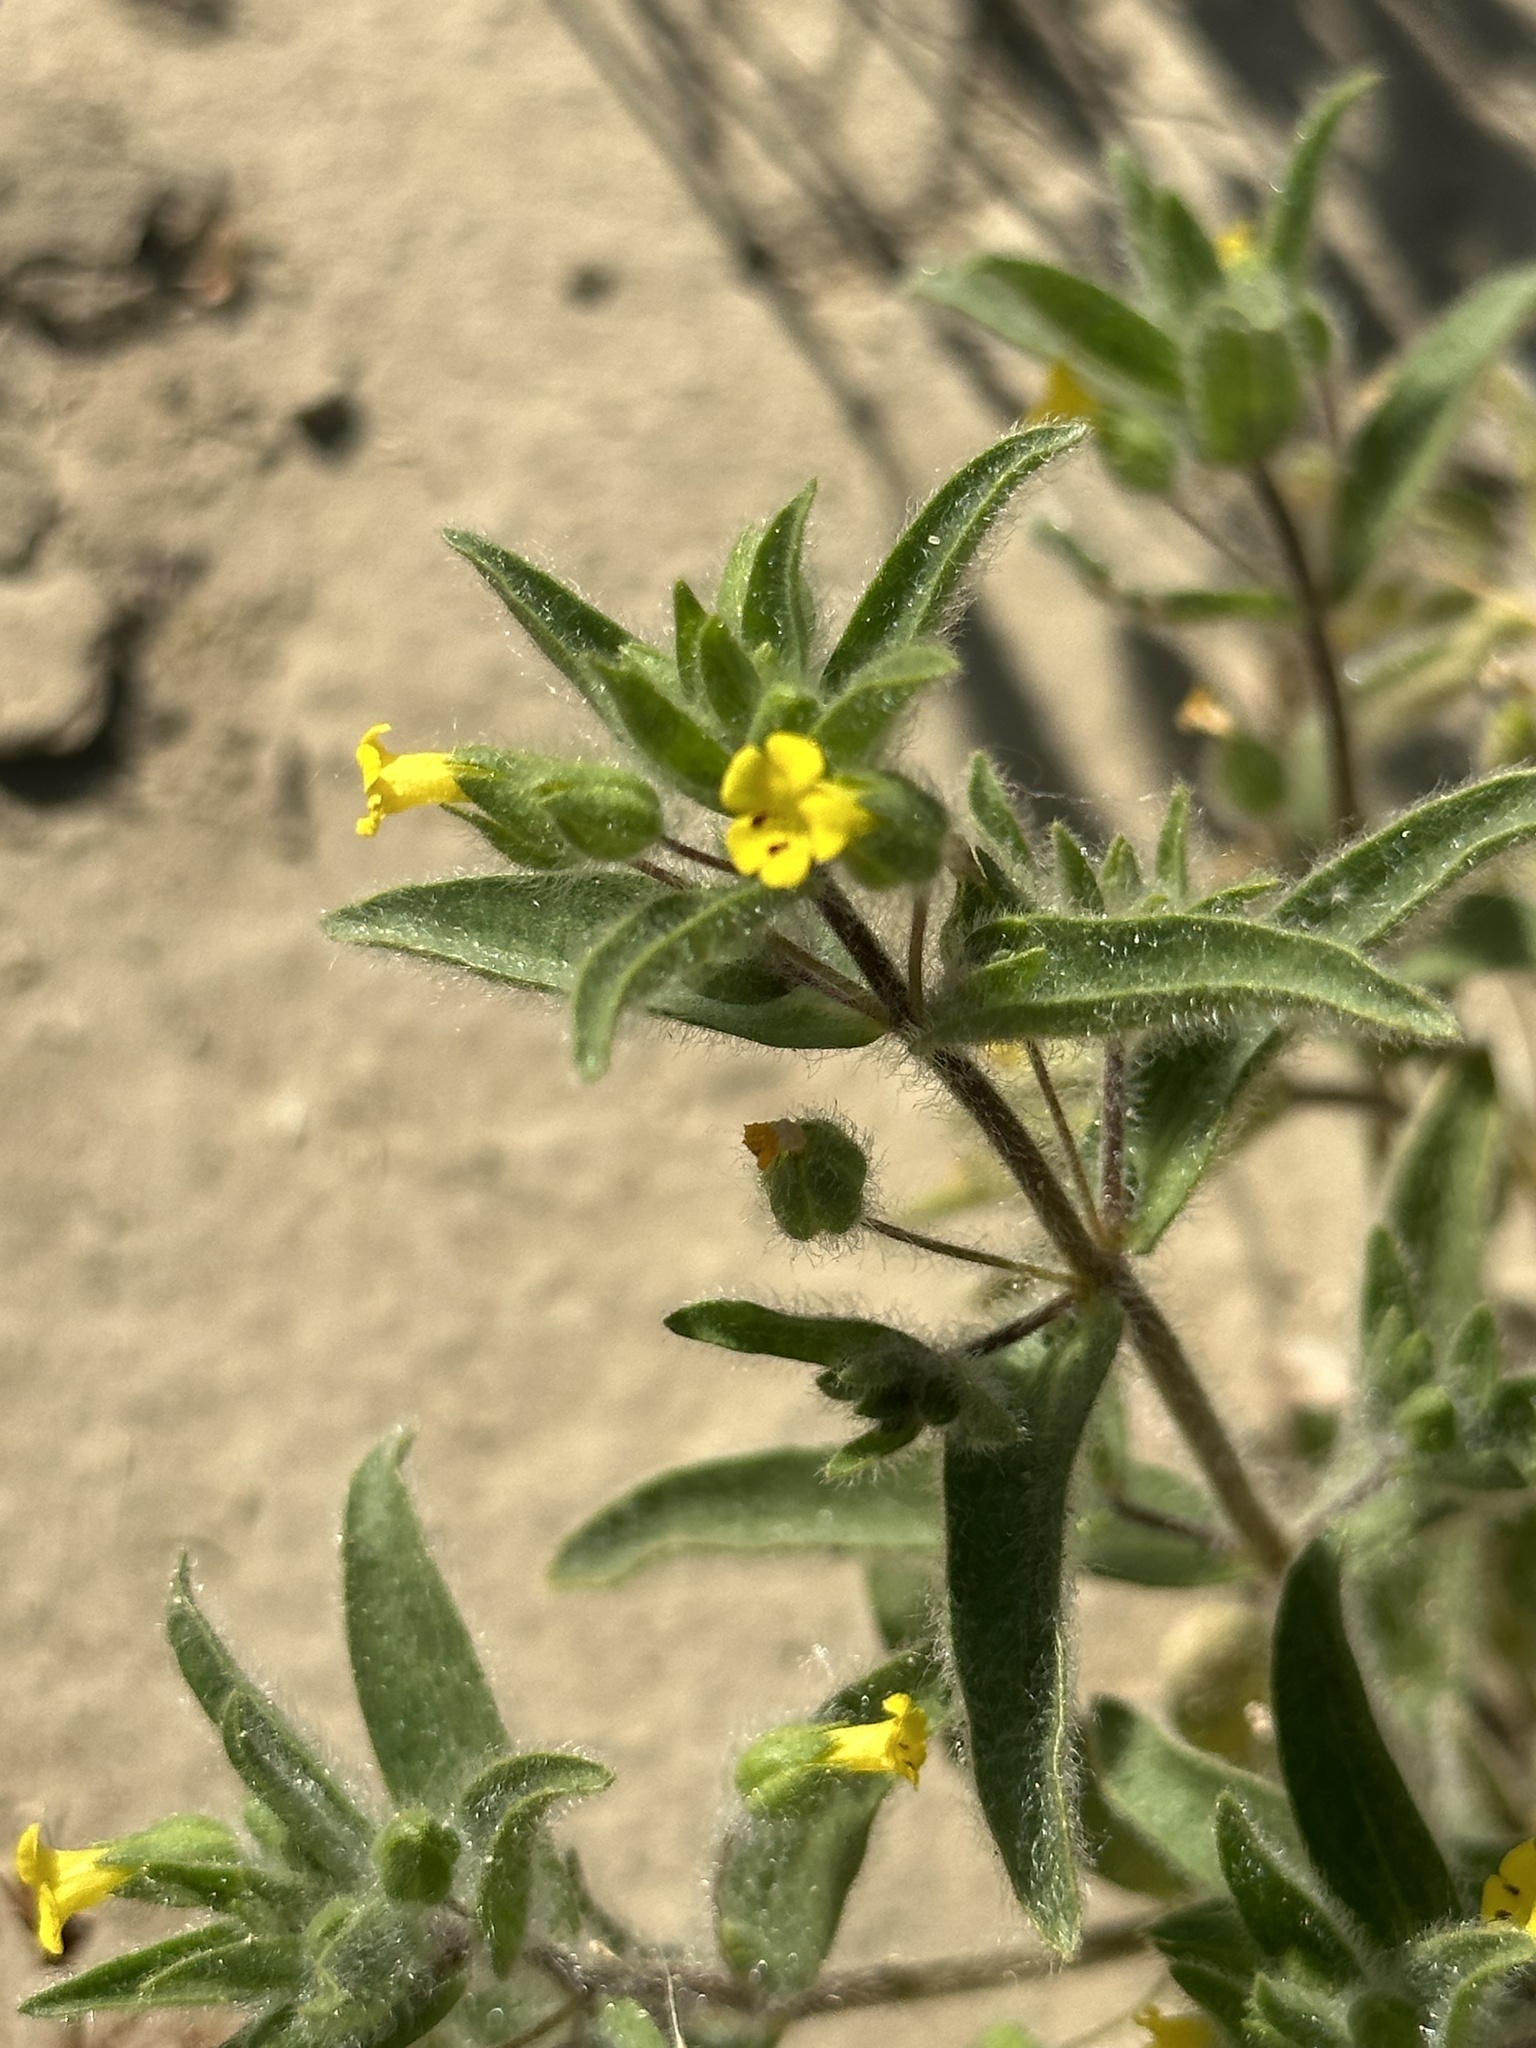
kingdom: Plantae
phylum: Tracheophyta
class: Magnoliopsida
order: Lamiales
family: Phrymaceae
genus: Mimetanthe
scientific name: Mimetanthe pilosa
